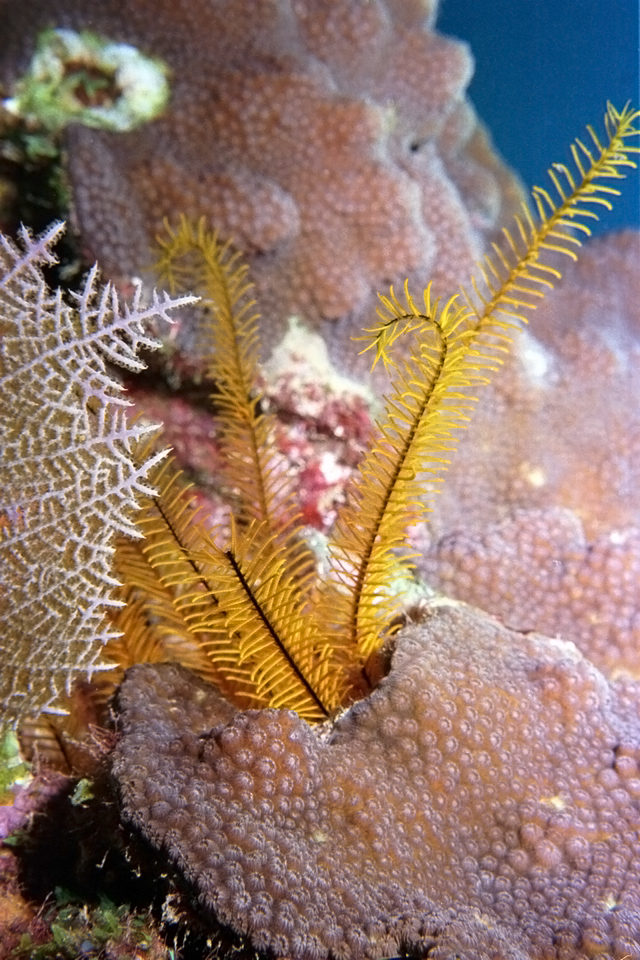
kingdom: Animalia
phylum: Echinodermata
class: Crinoidea
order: Comatulida
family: Comatulidae
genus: Davidaster
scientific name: Davidaster rubiginosus
